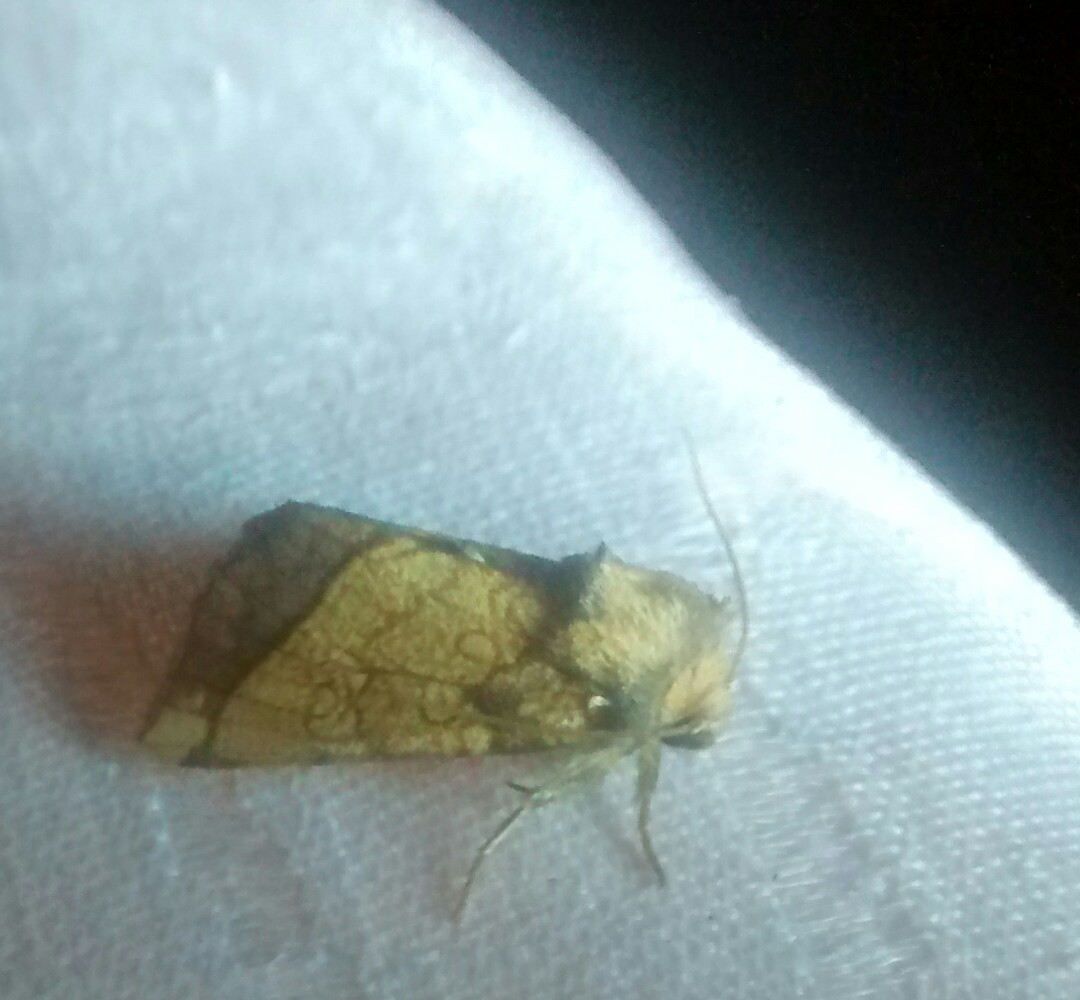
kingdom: Animalia
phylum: Arthropoda
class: Insecta
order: Lepidoptera
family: Noctuidae
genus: Papaipema
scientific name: Papaipema rigida
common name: Rigid sunflower borer moth
